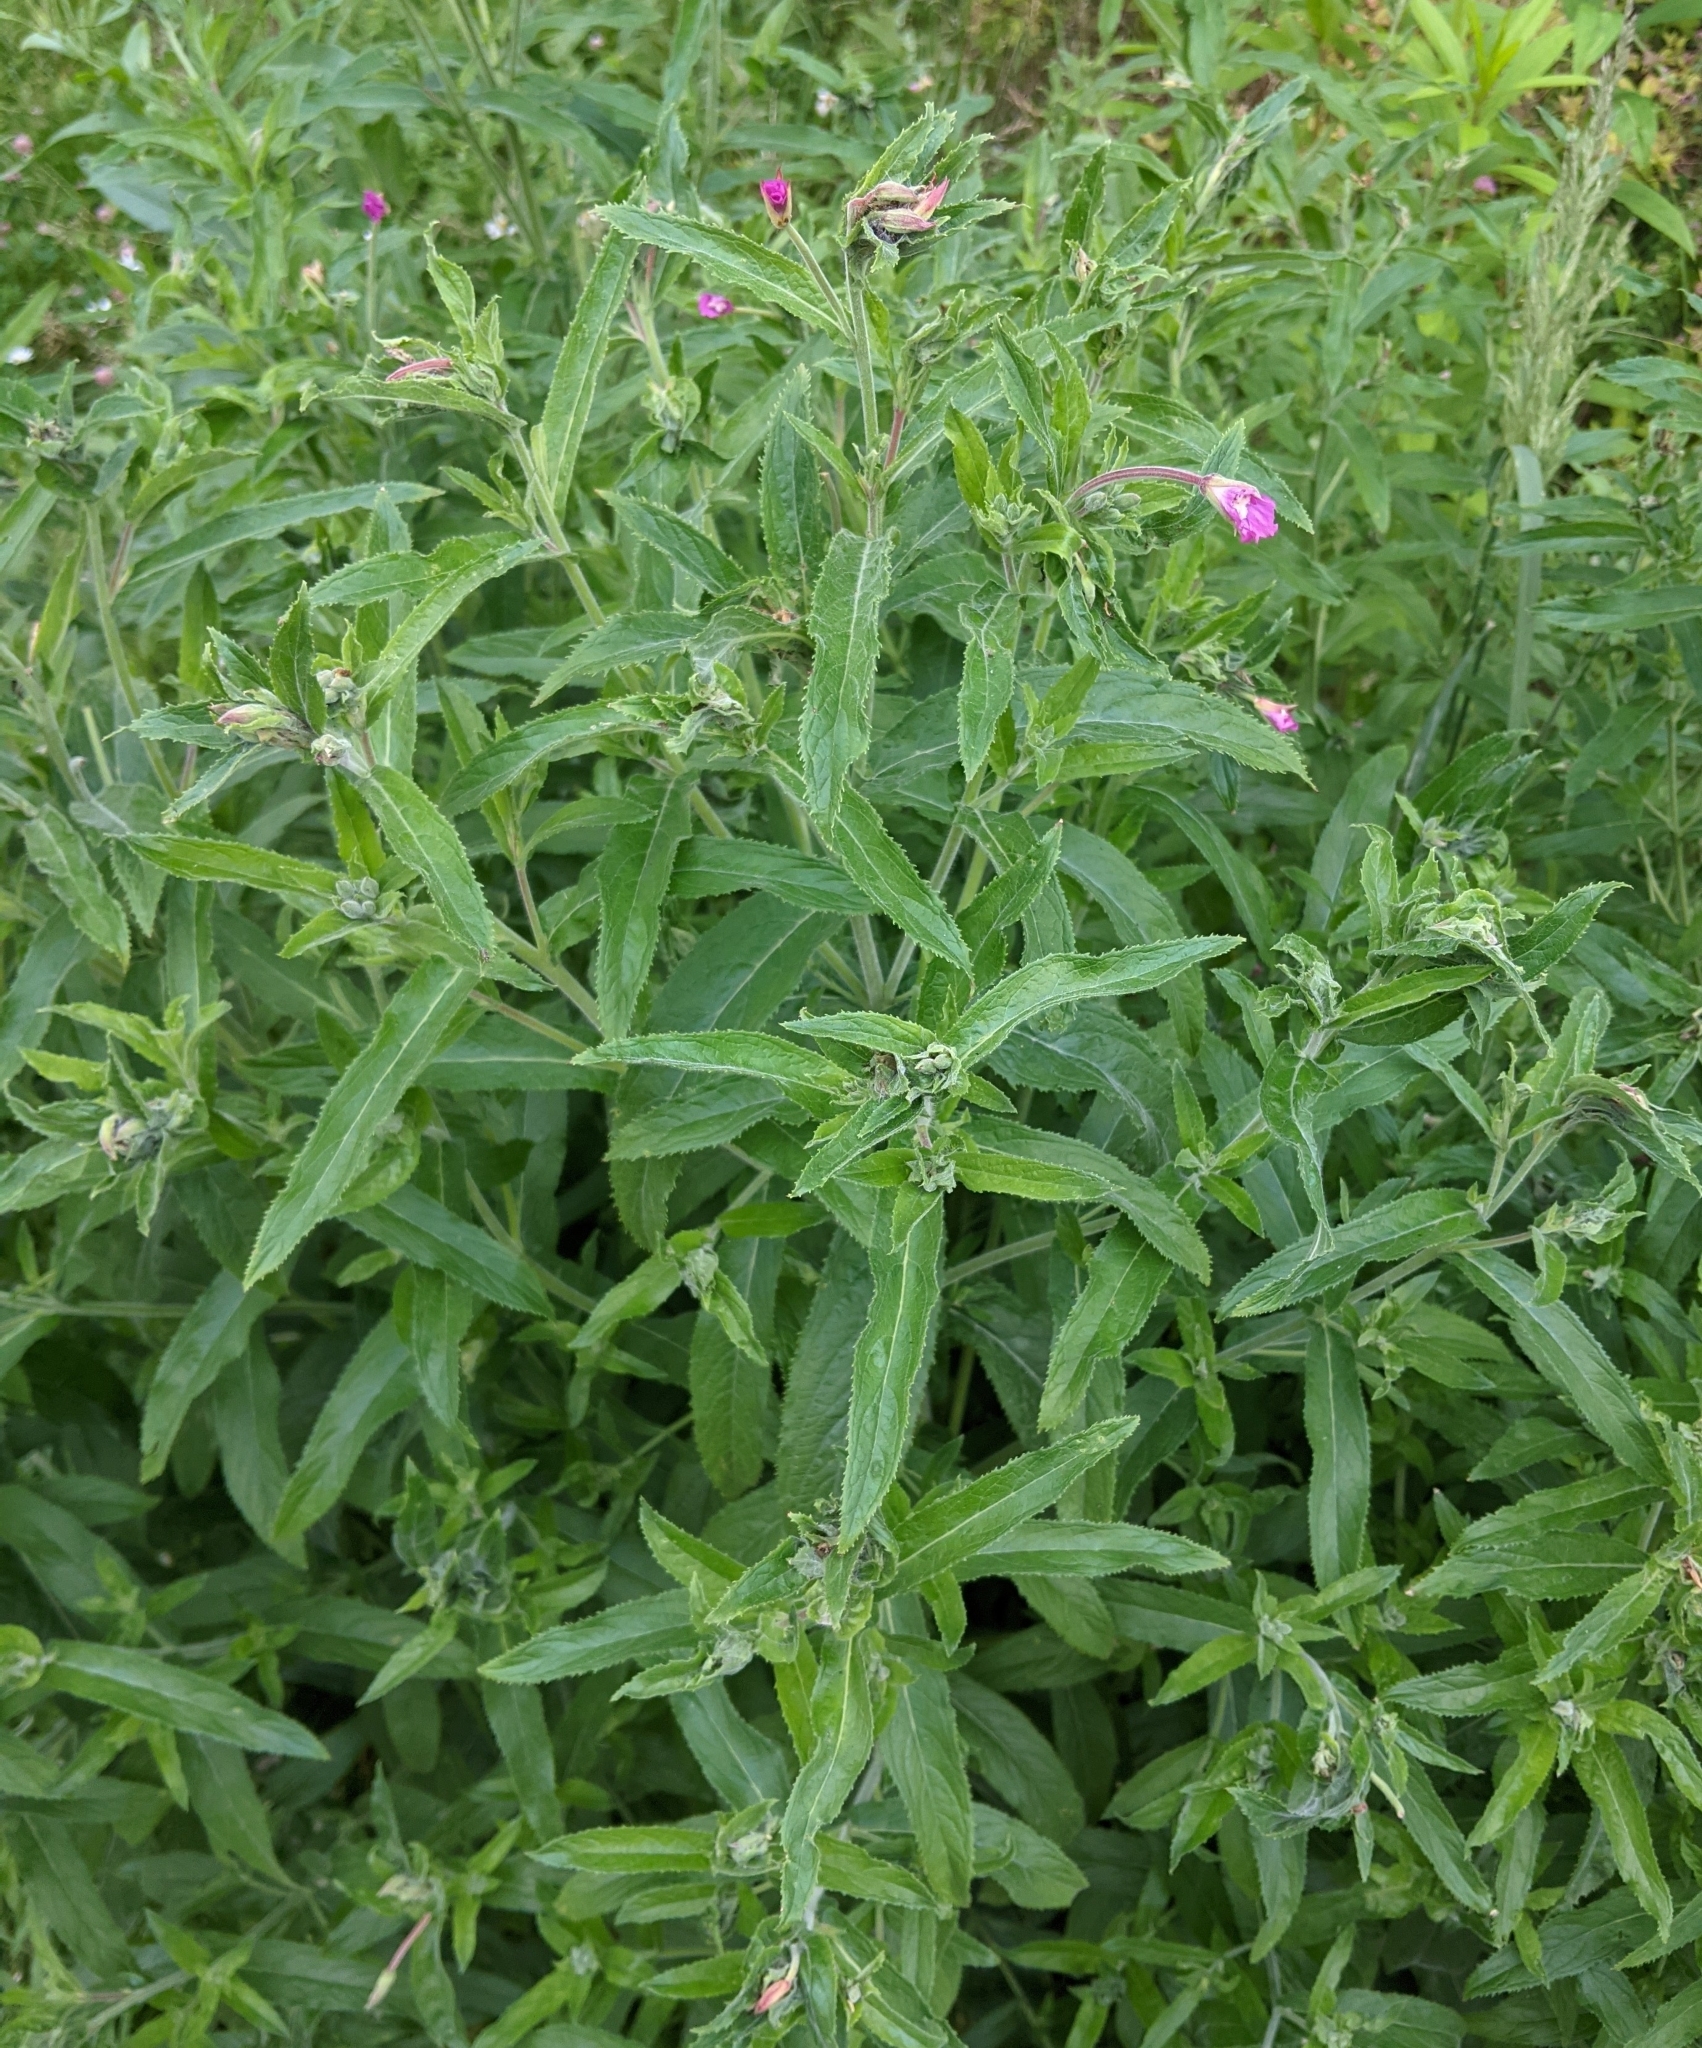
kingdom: Plantae
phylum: Tracheophyta
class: Magnoliopsida
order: Myrtales
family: Onagraceae
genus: Epilobium
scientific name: Epilobium hirsutum
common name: Great willowherb
